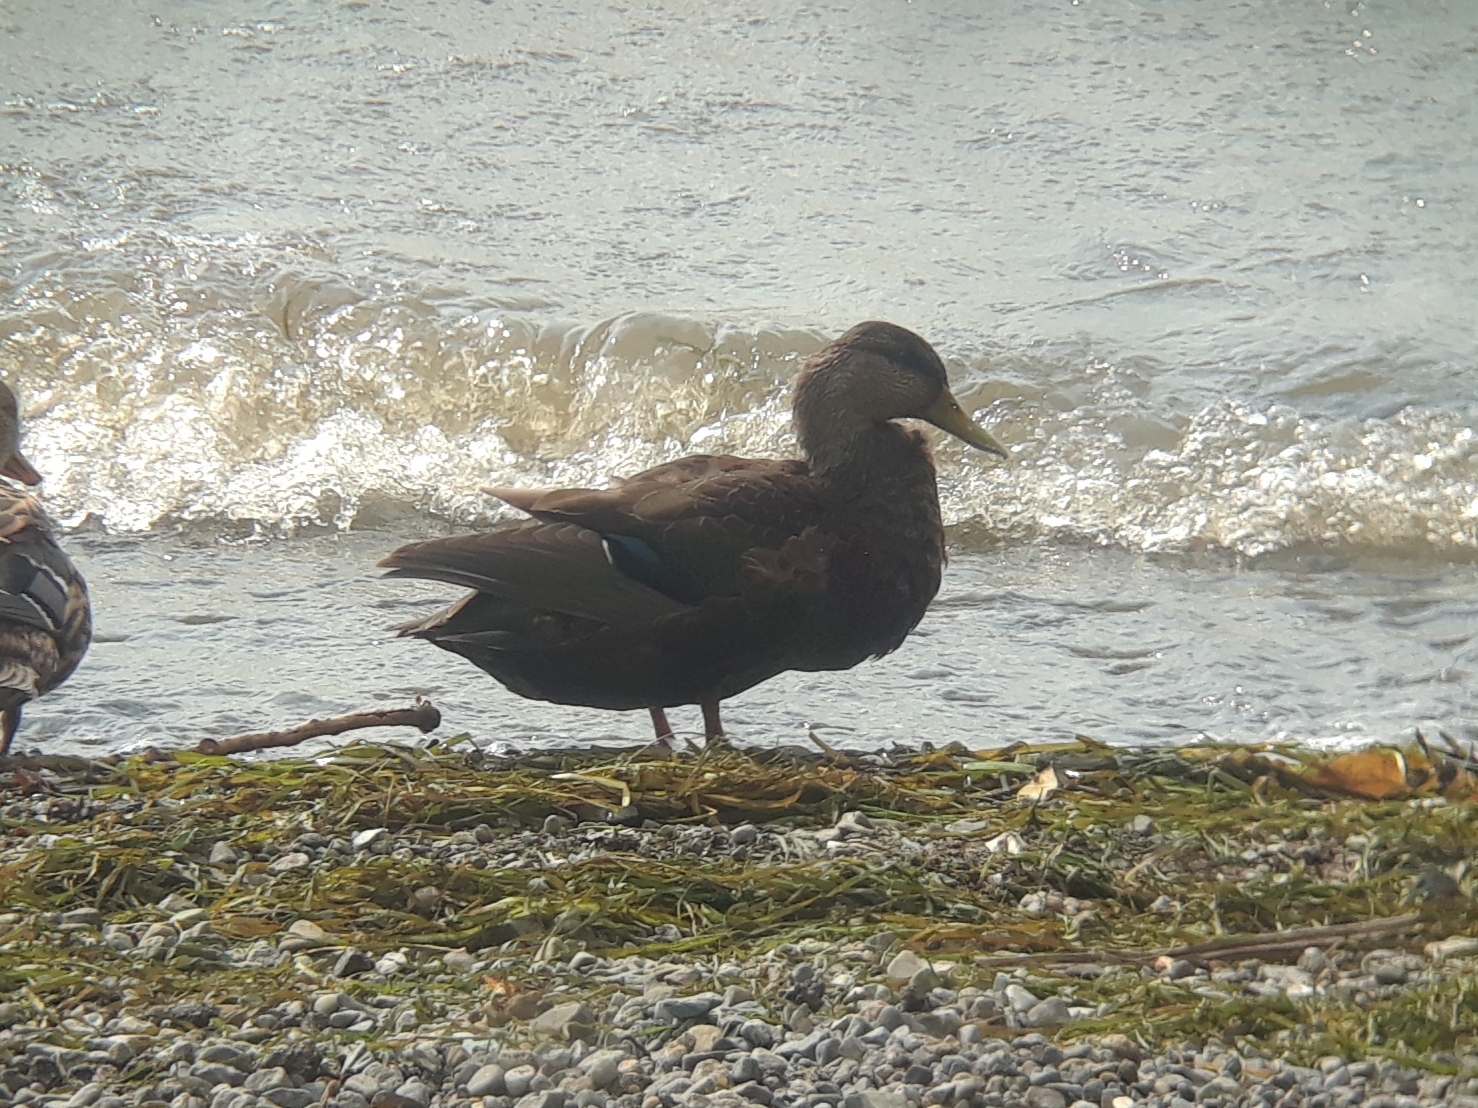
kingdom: Animalia
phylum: Chordata
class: Aves
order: Anseriformes
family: Anatidae
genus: Anas
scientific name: Anas rubripes
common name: American black duck
